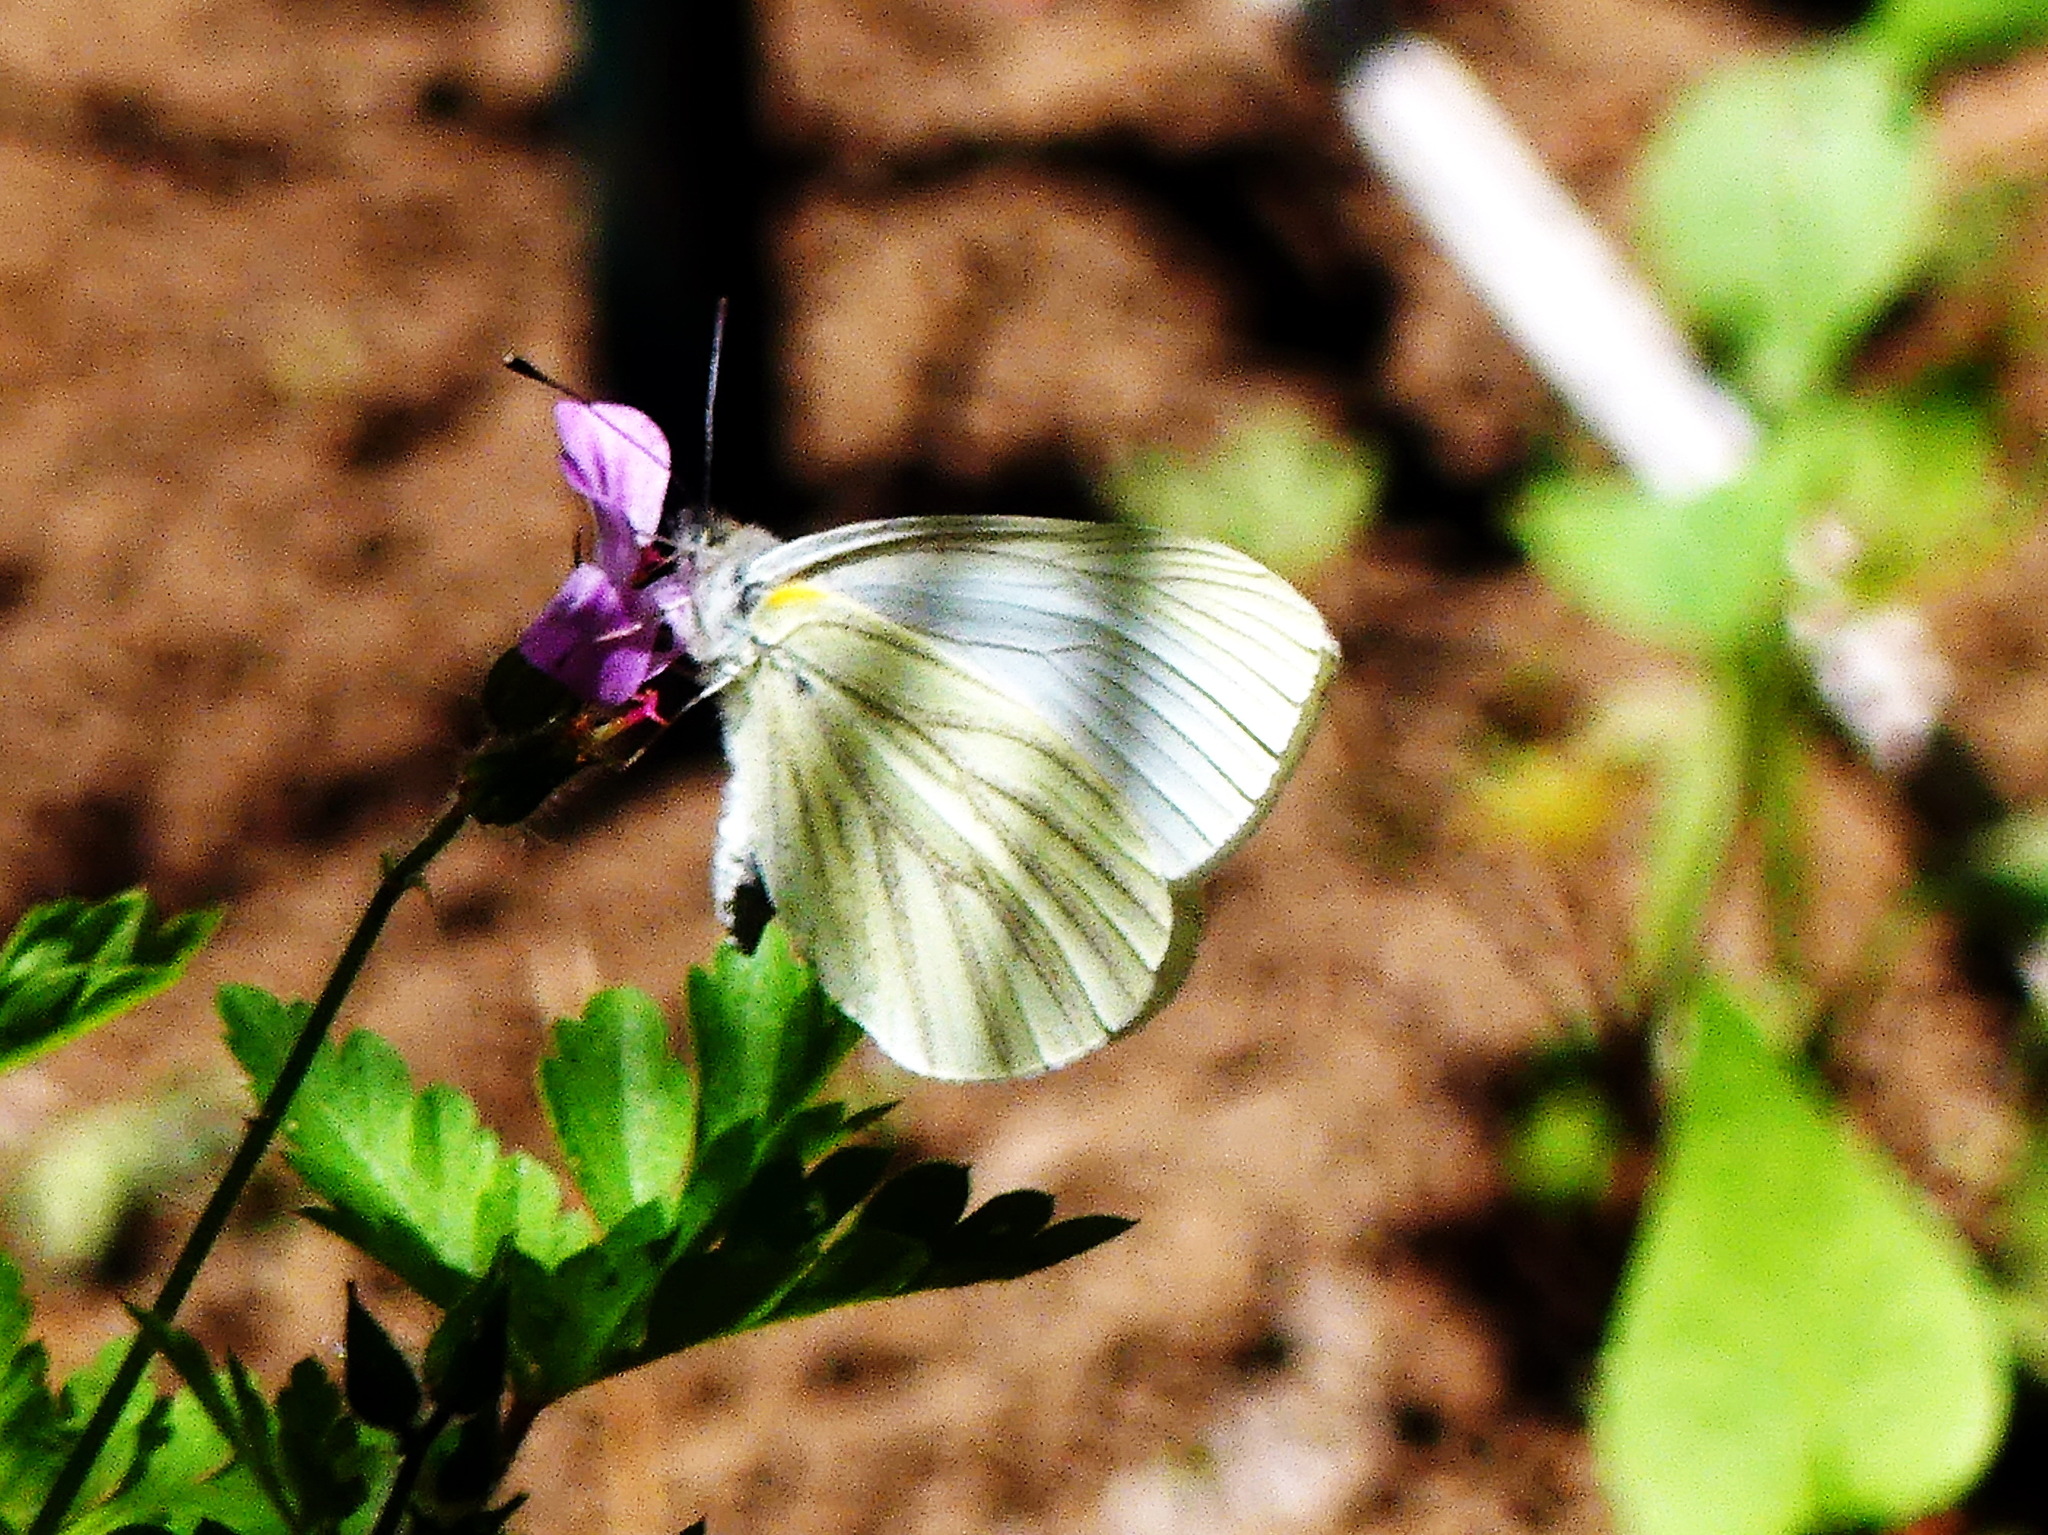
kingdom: Animalia
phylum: Arthropoda
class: Insecta
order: Lepidoptera
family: Pieridae
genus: Pieris
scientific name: Pieris oleracea
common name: Mustard white
